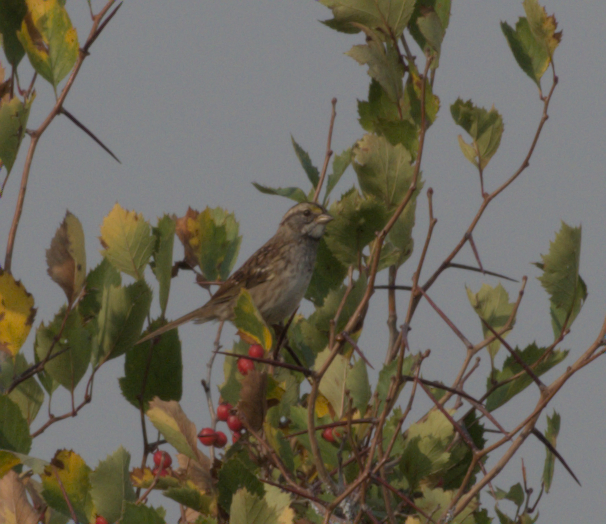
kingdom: Animalia
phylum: Chordata
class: Aves
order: Passeriformes
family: Passerellidae
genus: Zonotrichia
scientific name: Zonotrichia albicollis
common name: White-throated sparrow
